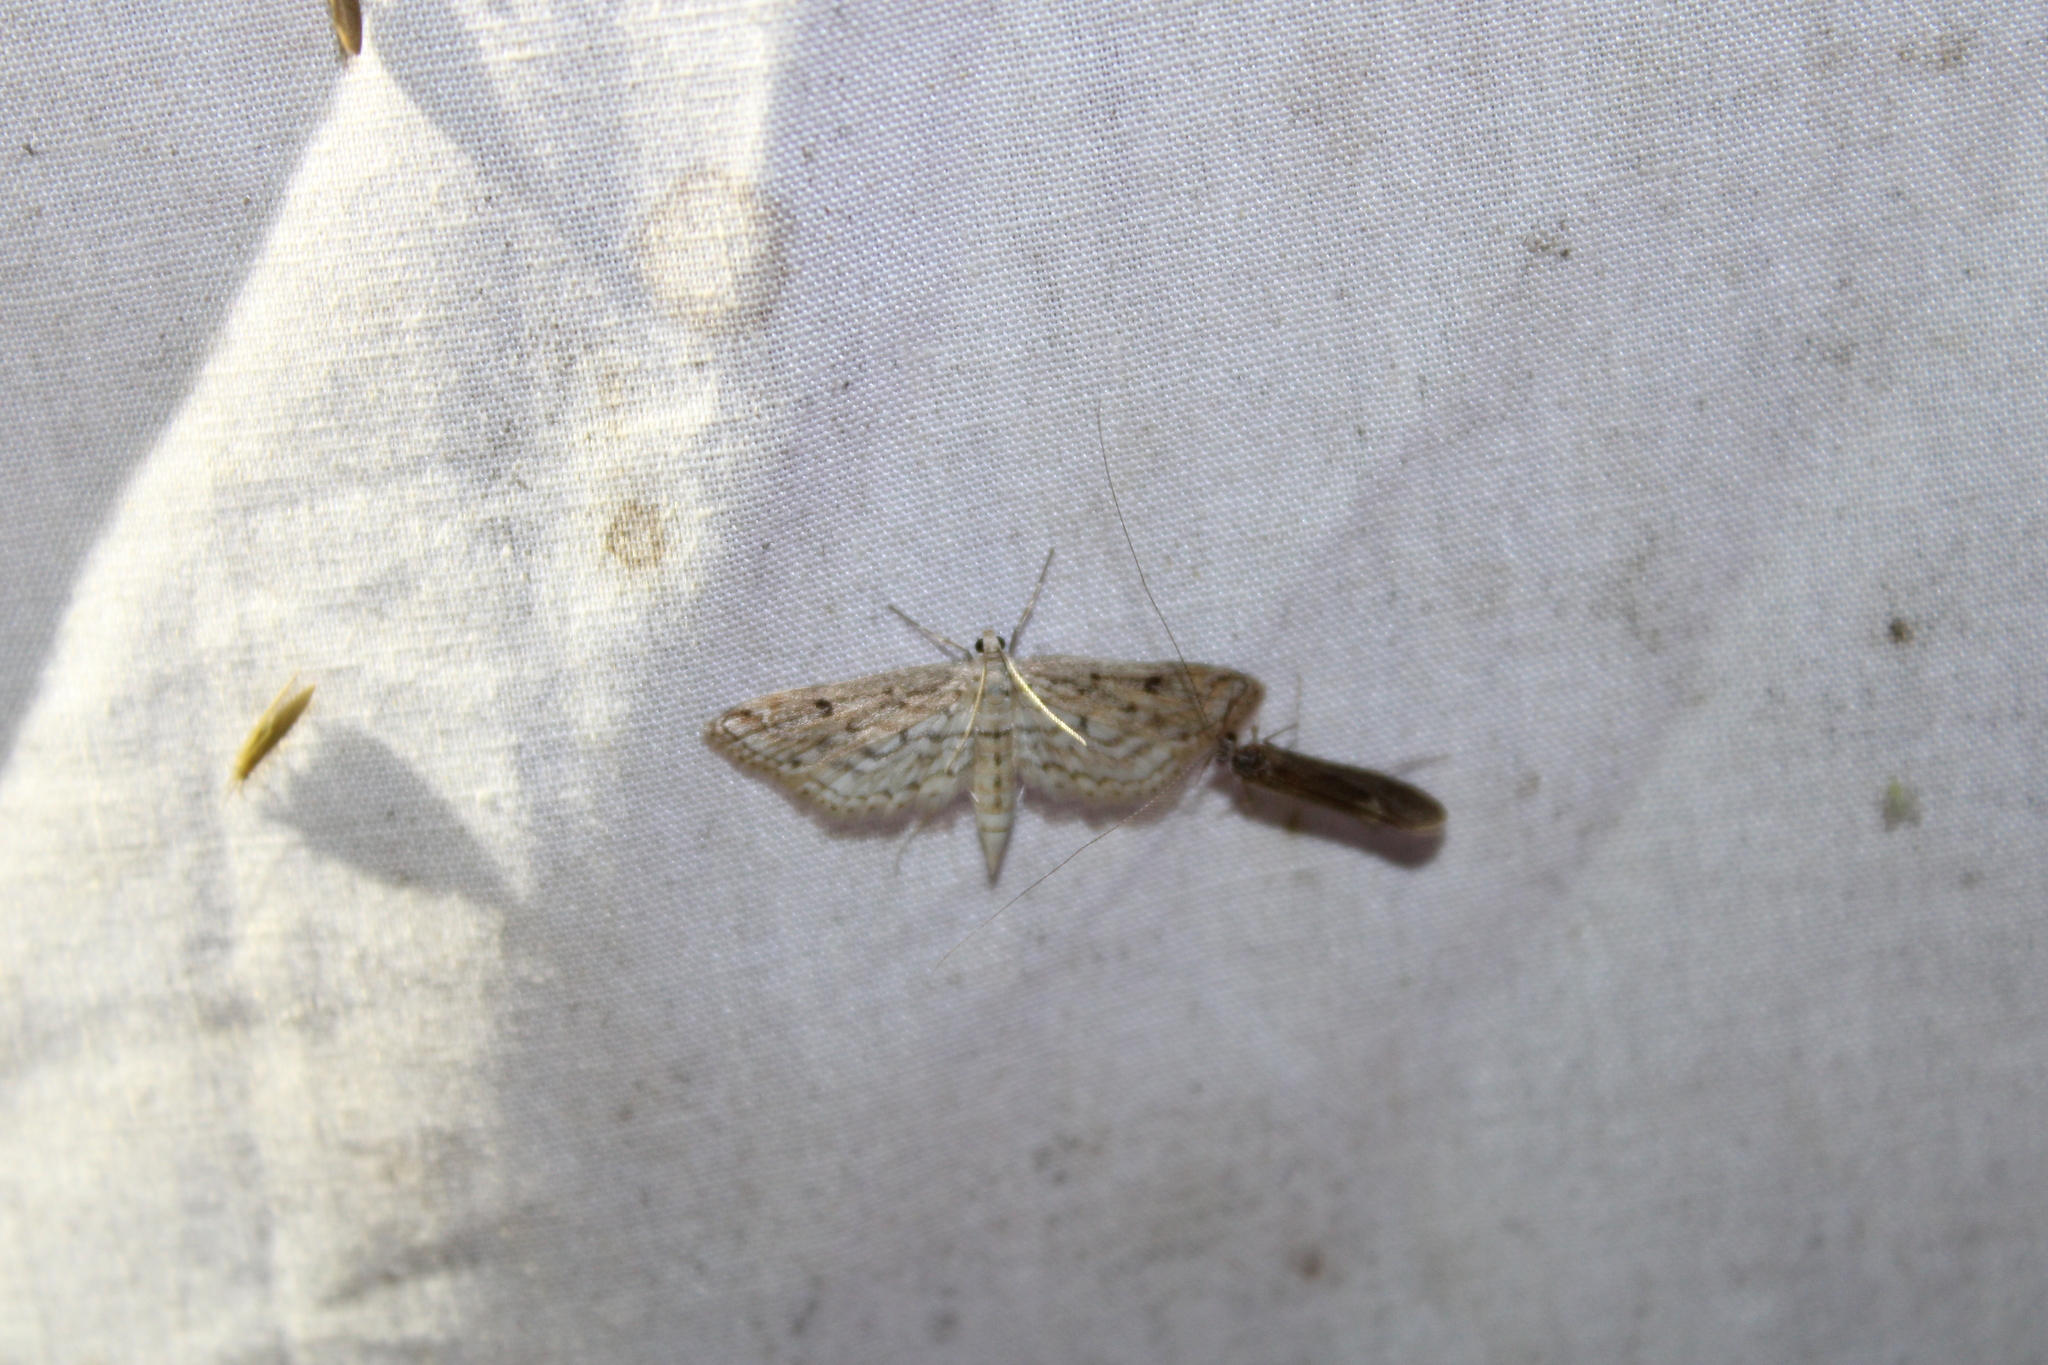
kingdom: Animalia
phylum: Arthropoda
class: Insecta
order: Lepidoptera
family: Crambidae
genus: Parapoynx
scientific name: Parapoynx allionealis
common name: Bladderwort casemaker
